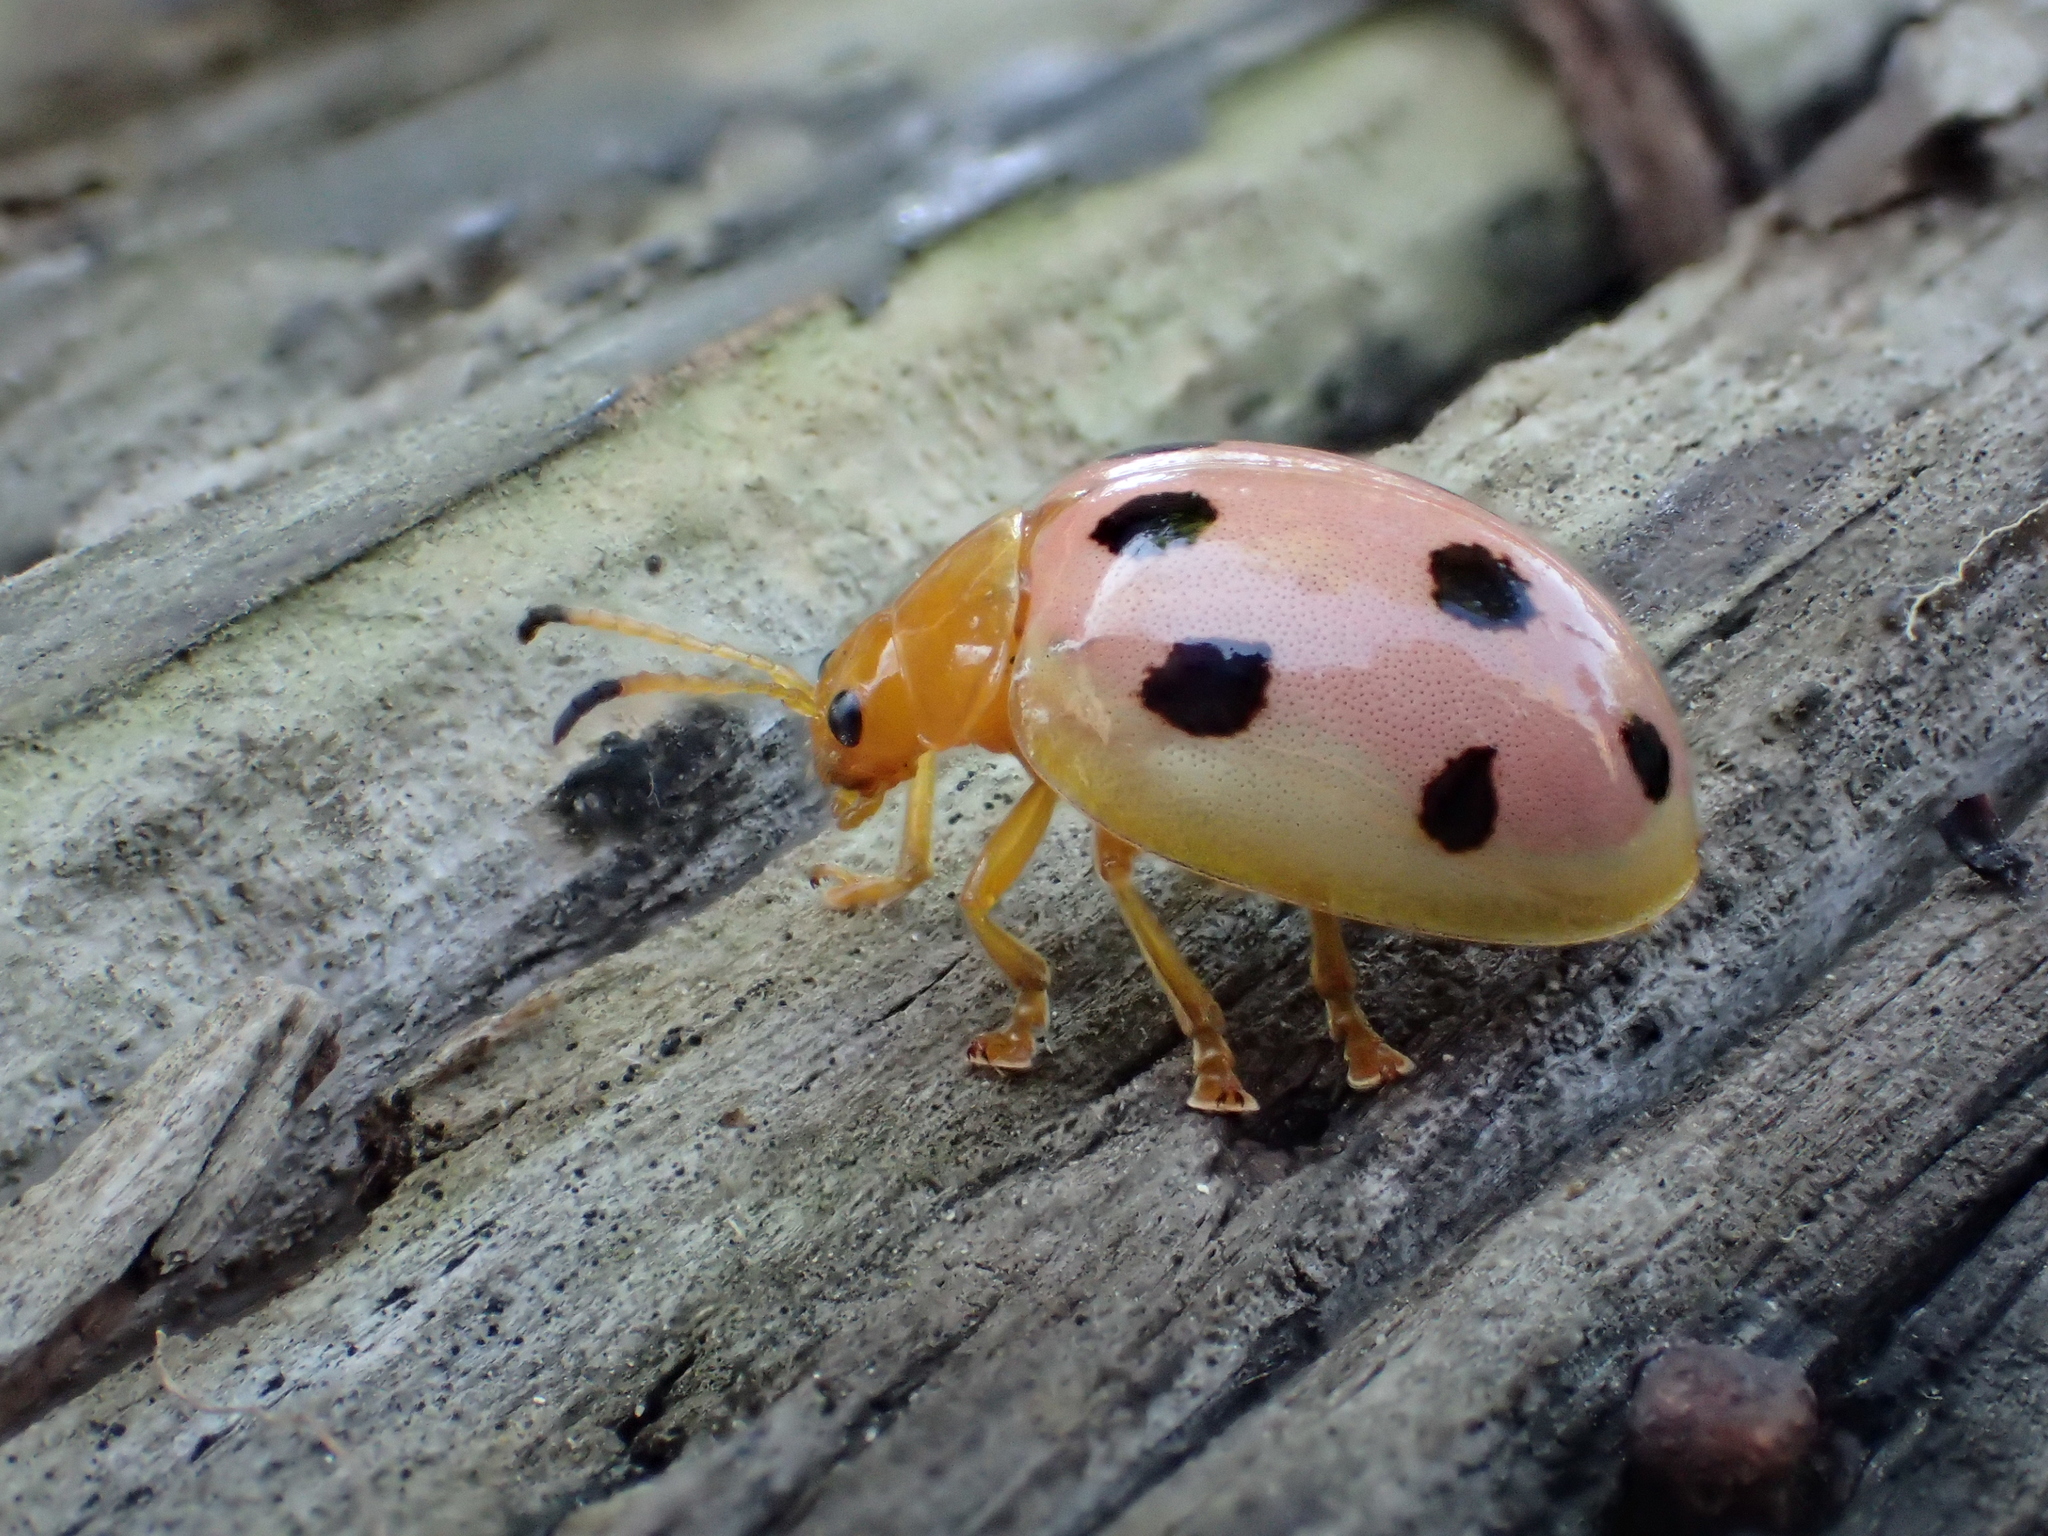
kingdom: Animalia
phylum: Arthropoda
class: Insecta
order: Coleoptera
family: Chrysomelidae
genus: Oides
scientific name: Oides decempunctata
